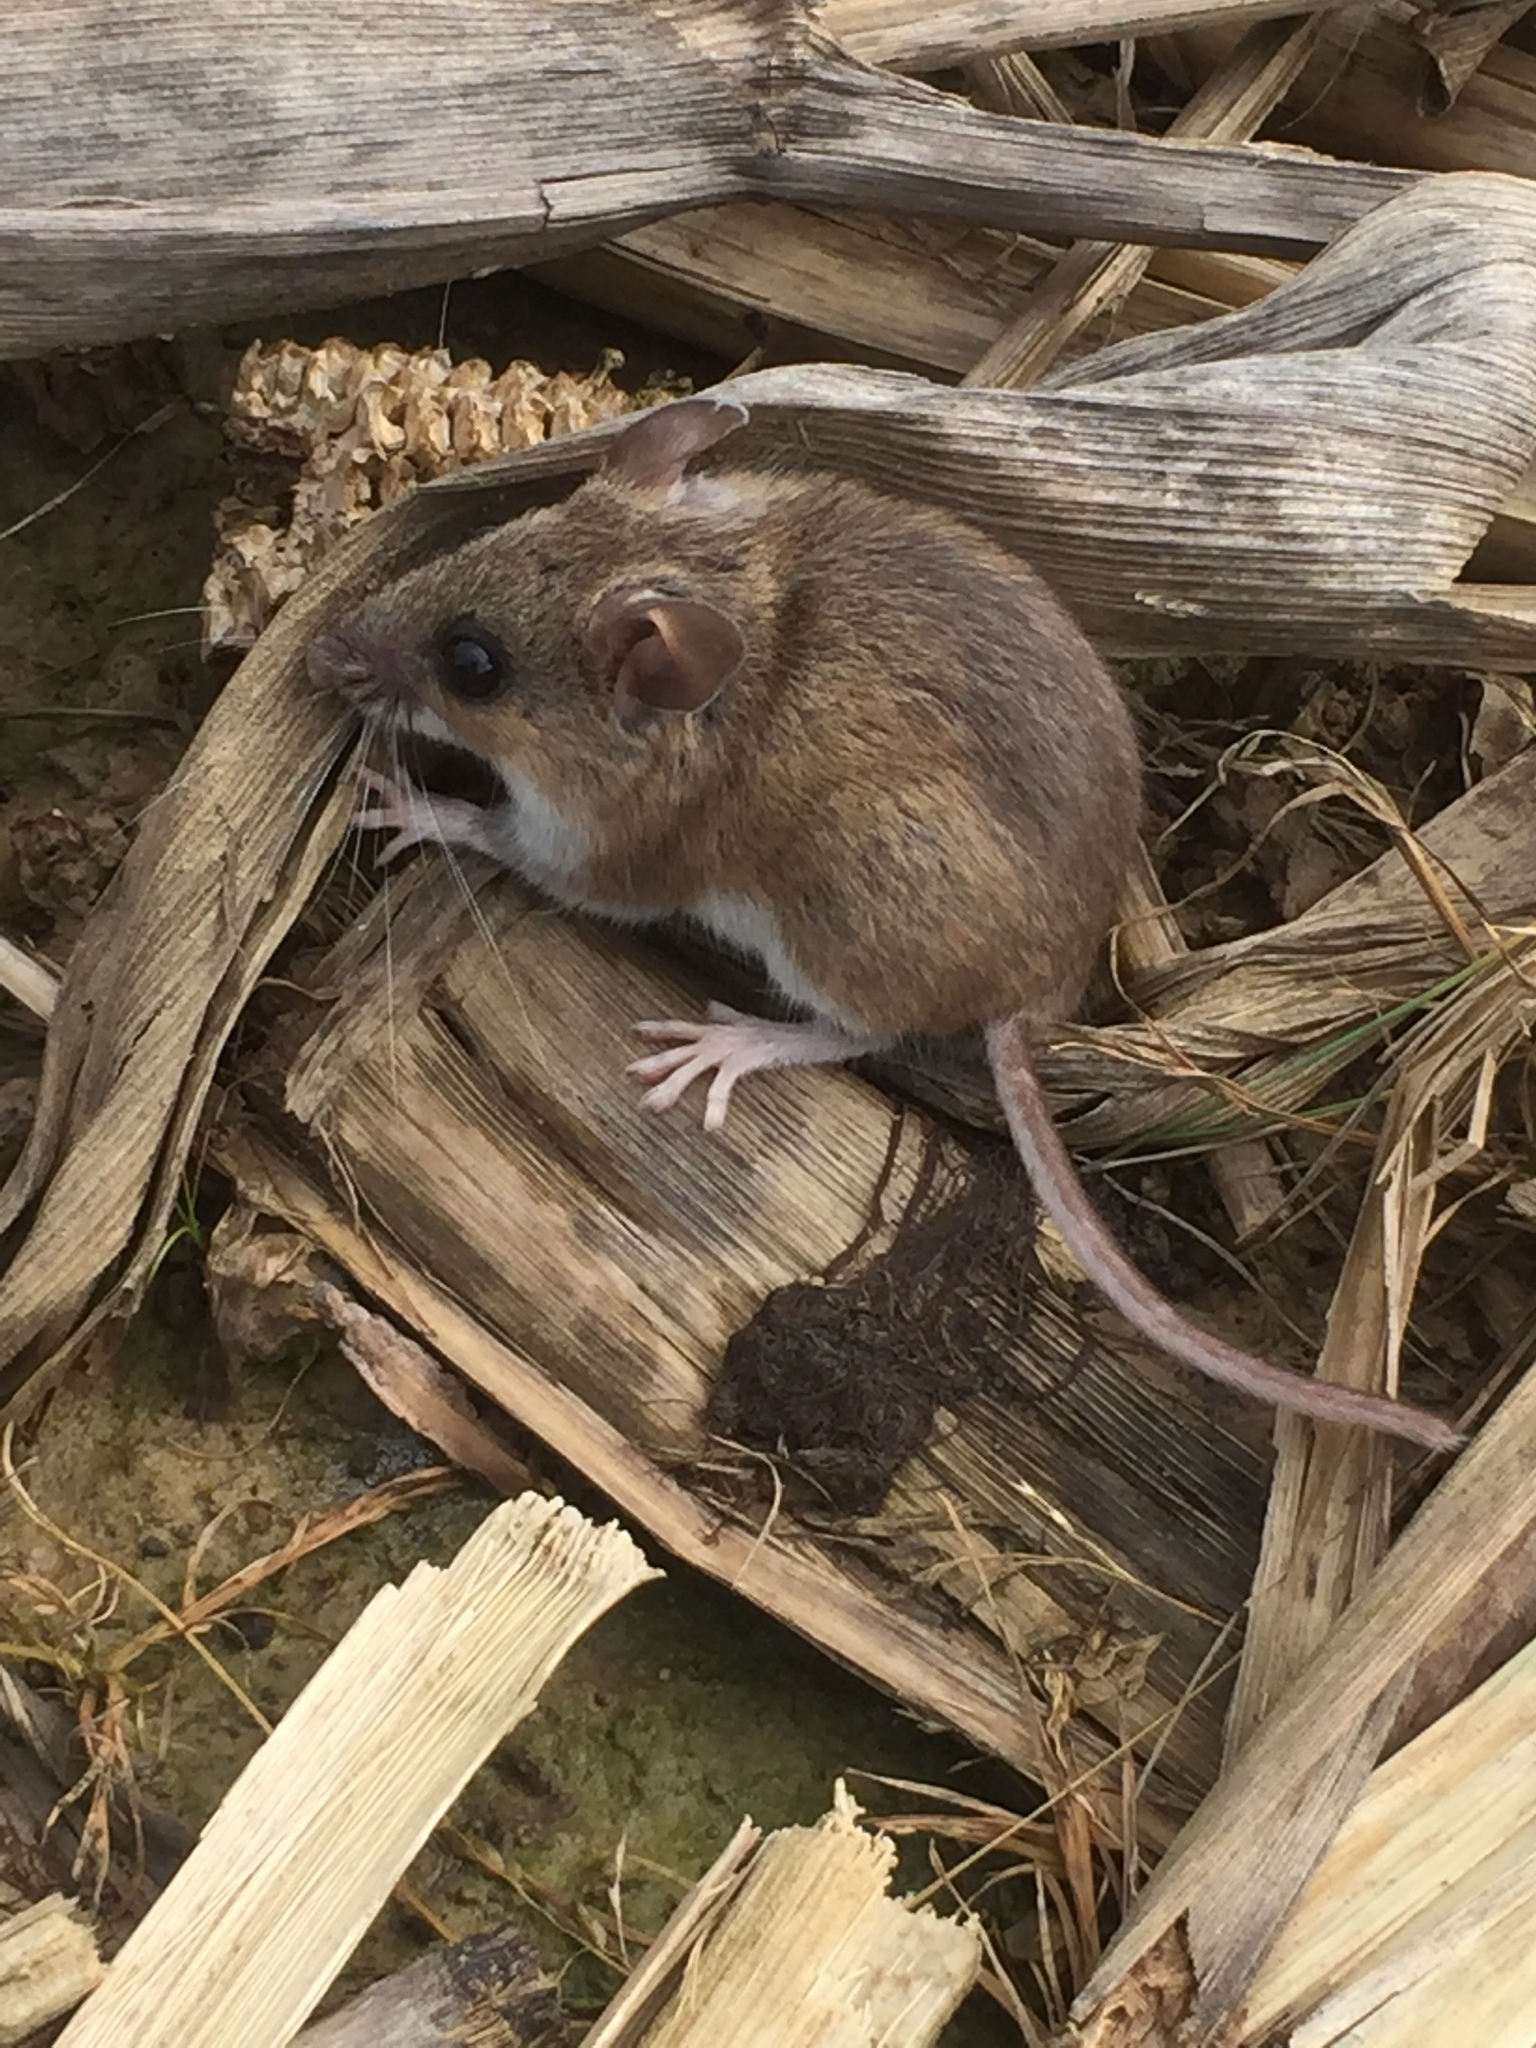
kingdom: Animalia
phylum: Chordata
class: Mammalia
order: Rodentia
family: Cricetidae
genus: Peromyscus
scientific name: Peromyscus leucopus
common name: White-footed deermouse
